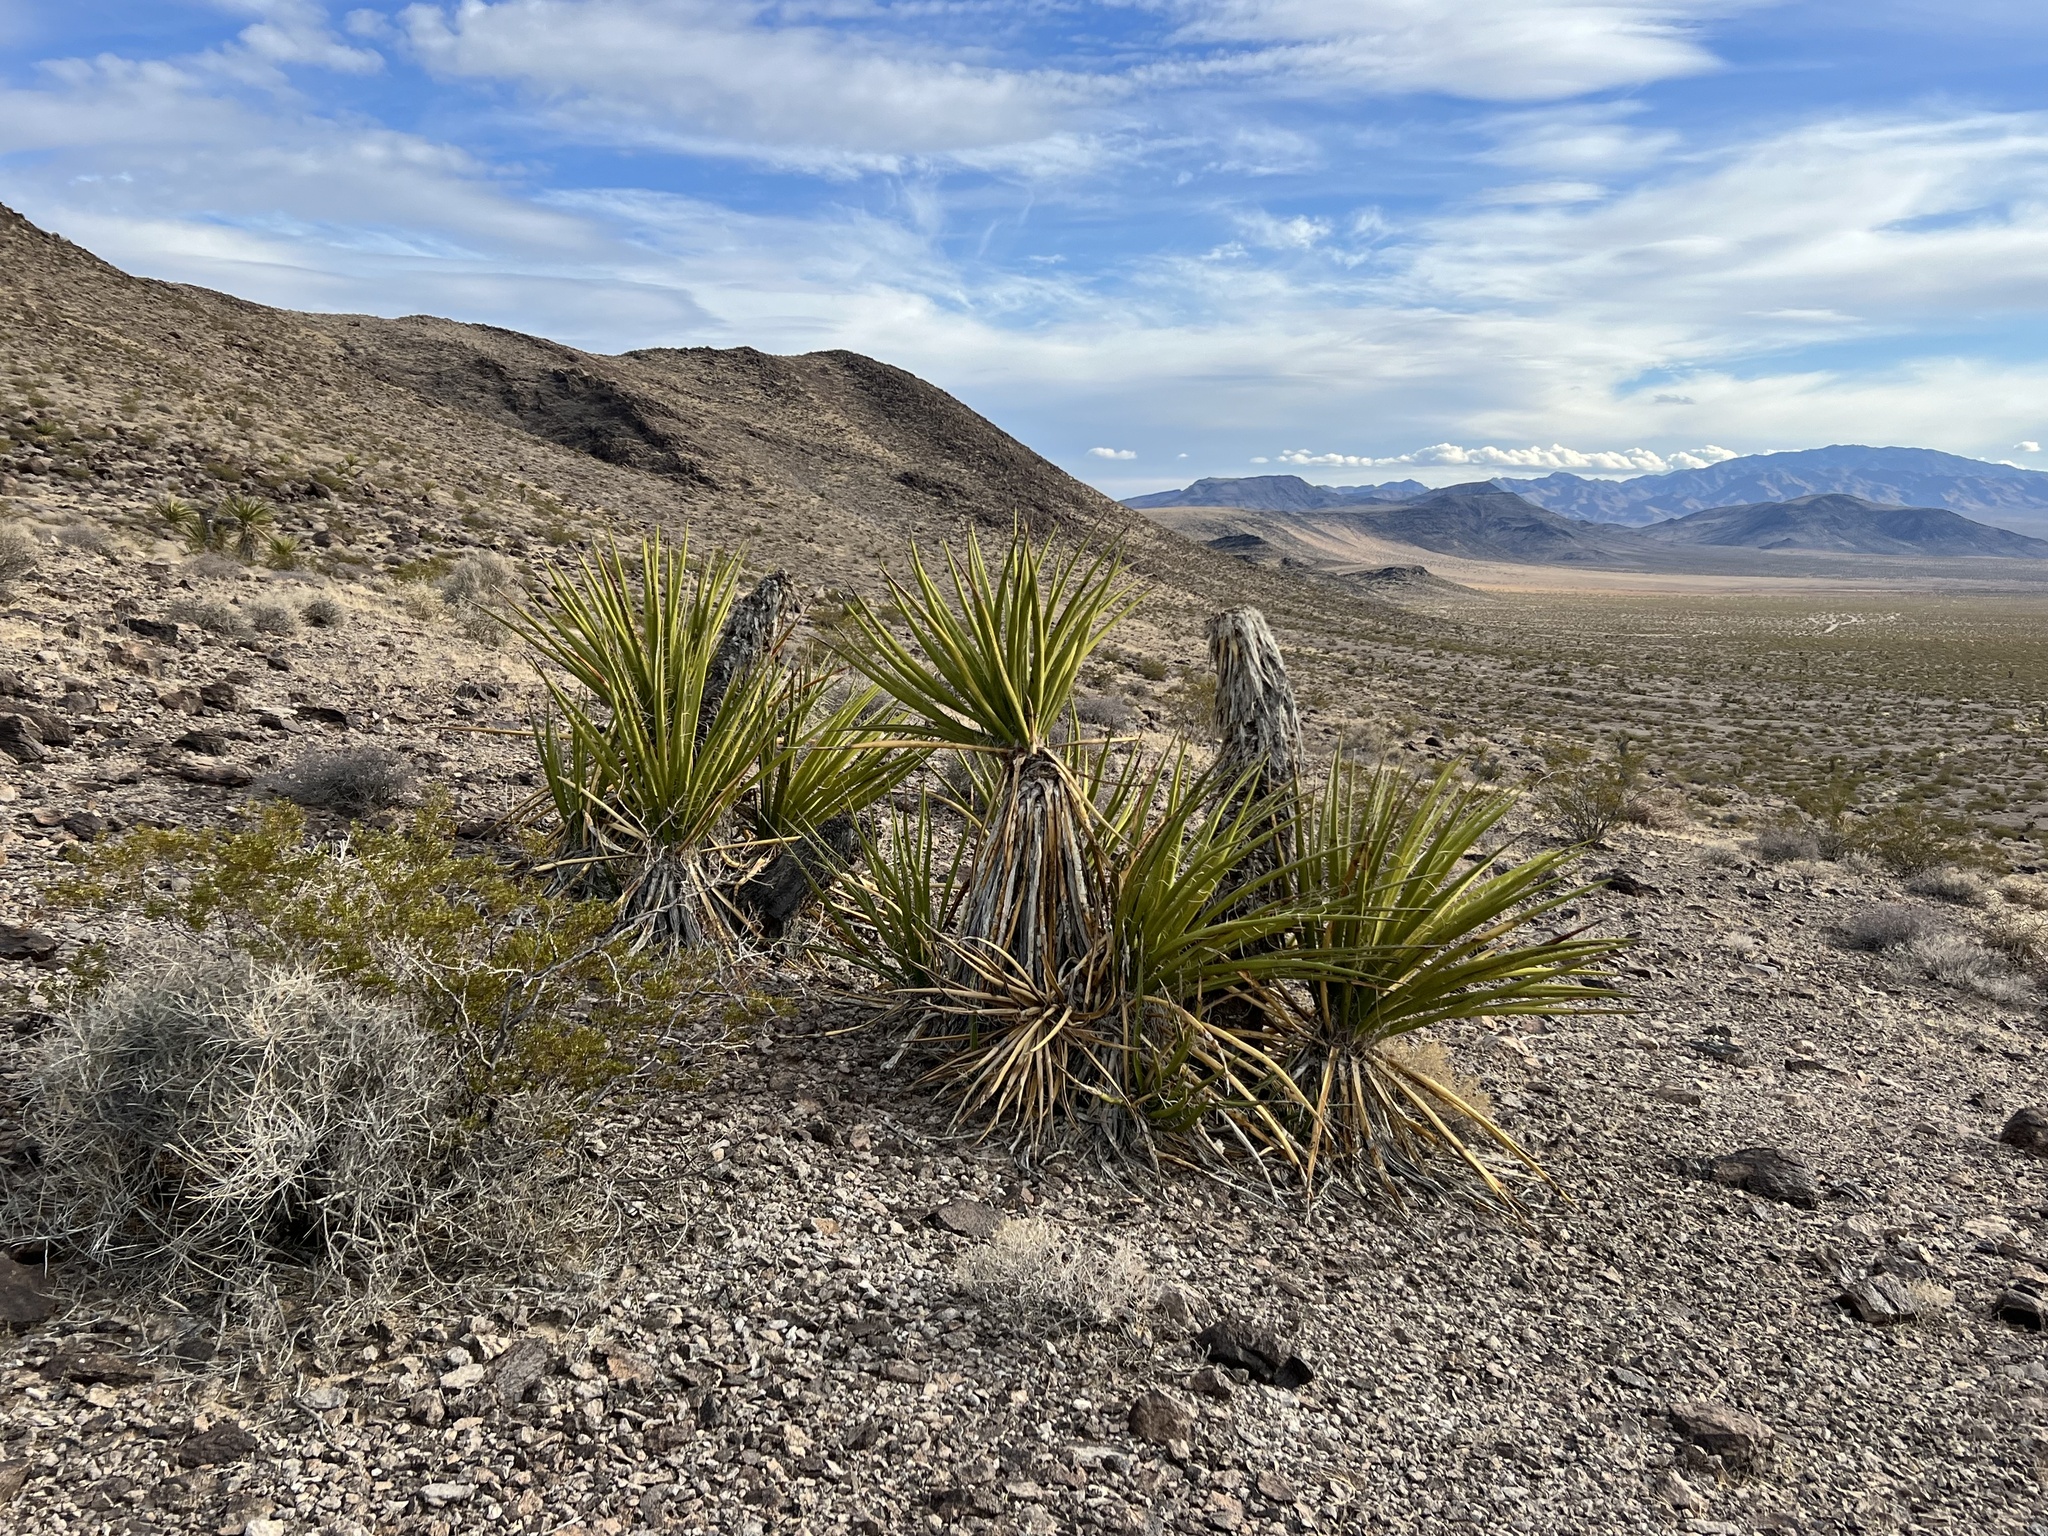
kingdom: Plantae
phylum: Tracheophyta
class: Liliopsida
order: Asparagales
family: Asparagaceae
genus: Yucca
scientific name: Yucca schidigera
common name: Mojave yucca
